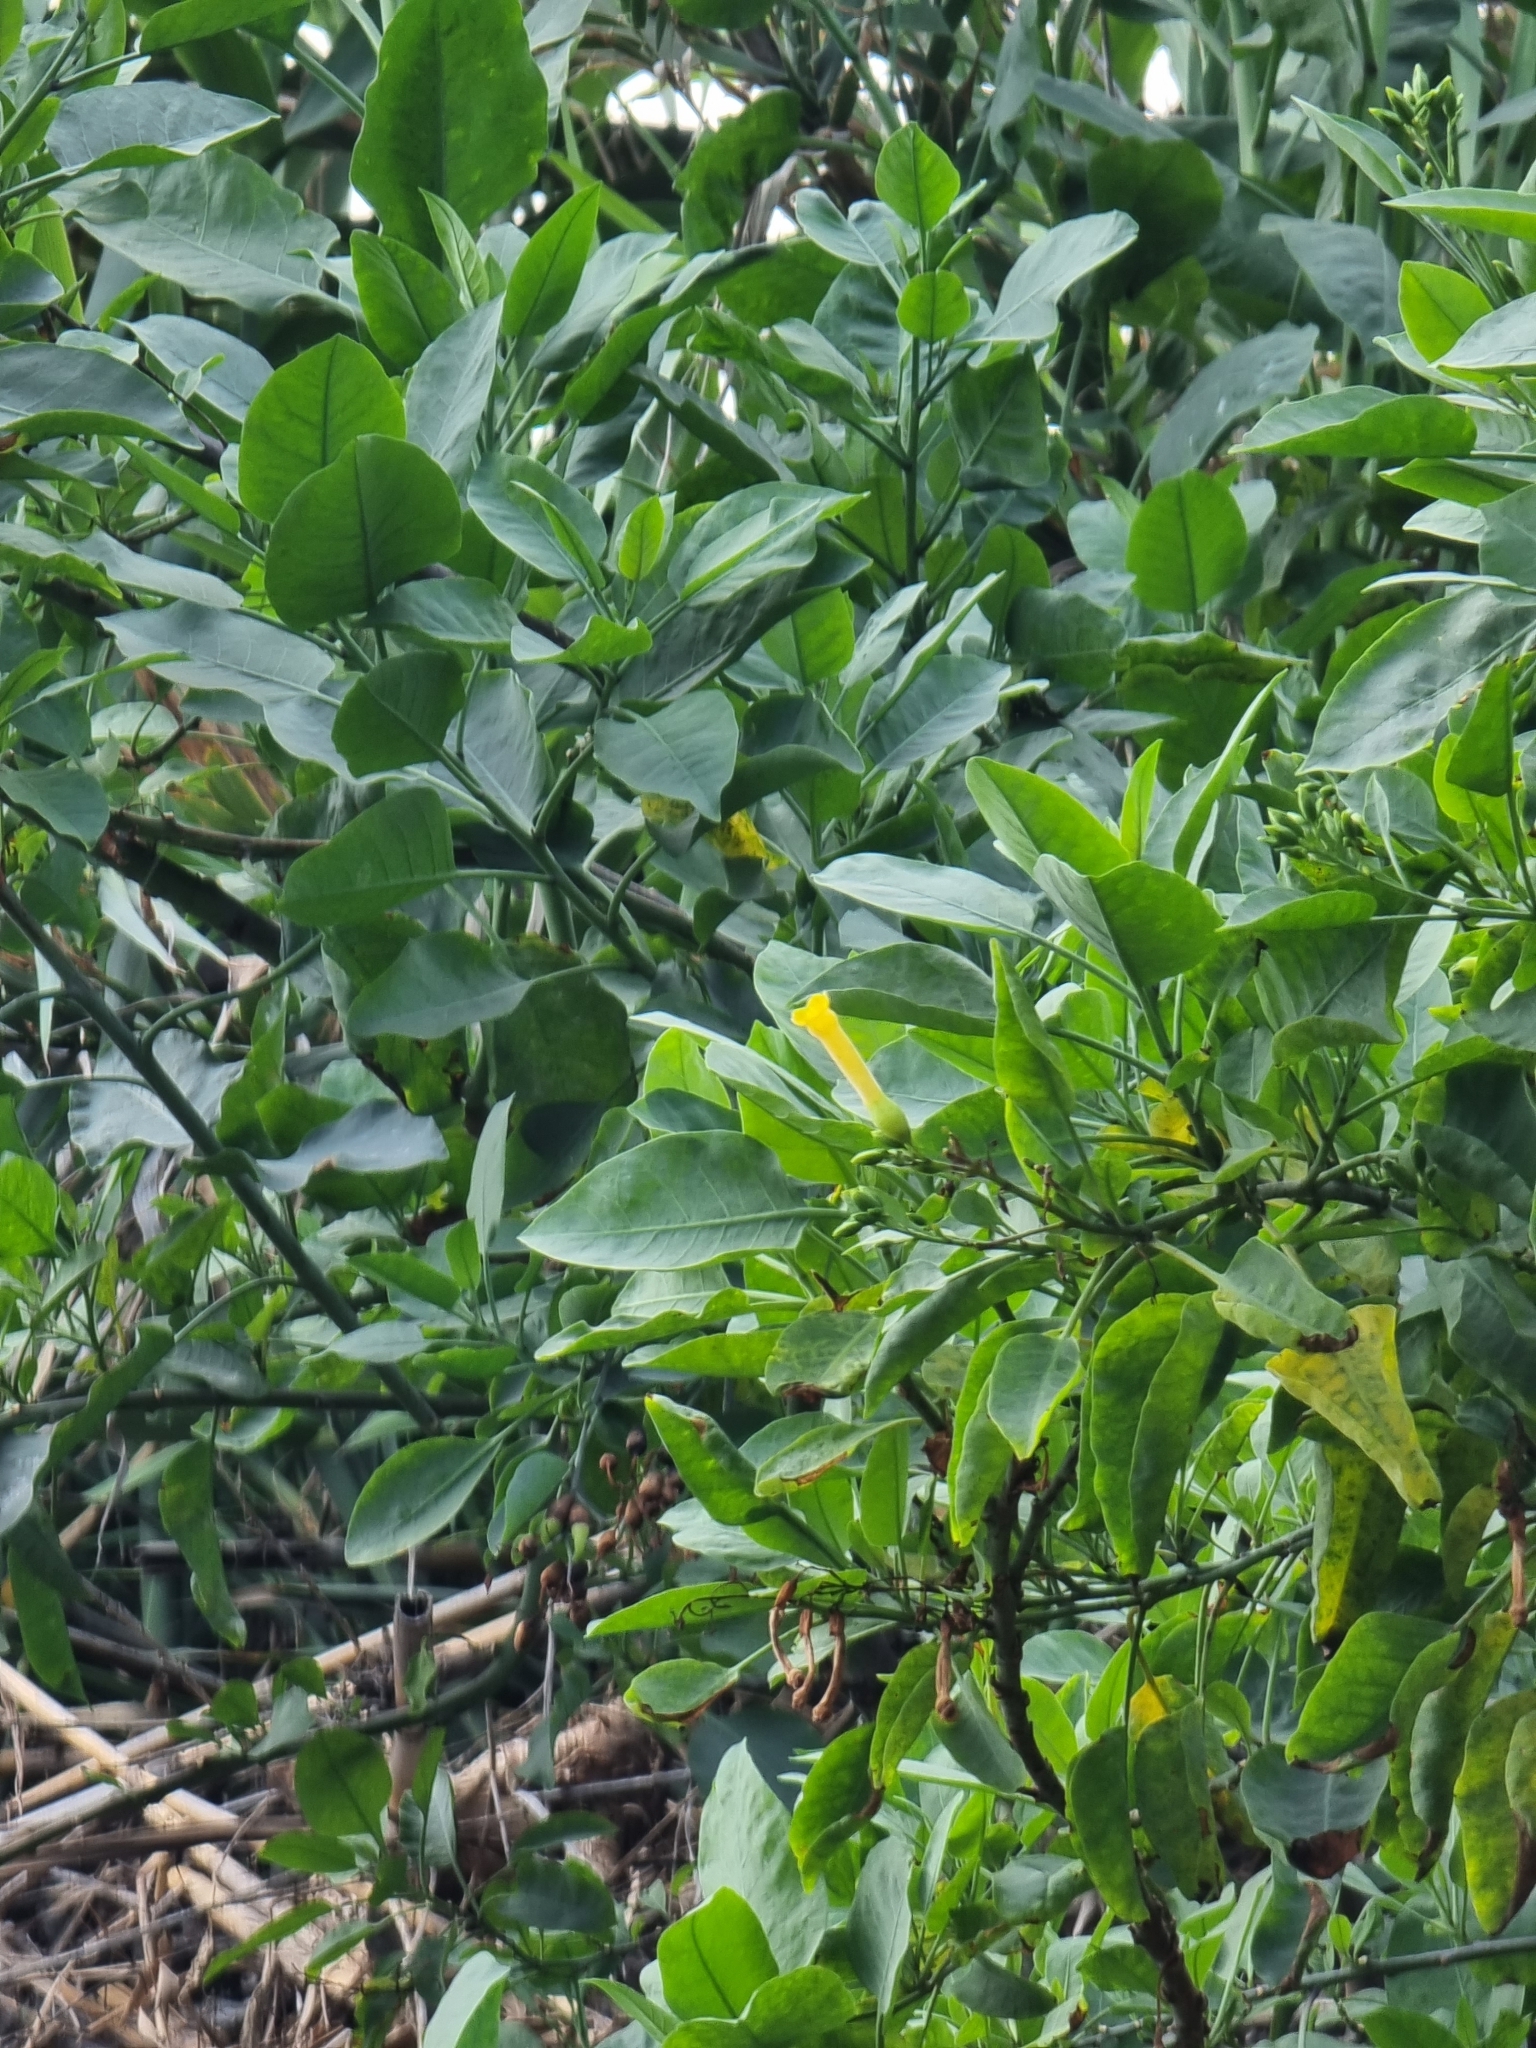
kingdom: Plantae
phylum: Tracheophyta
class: Magnoliopsida
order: Solanales
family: Solanaceae
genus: Nicotiana
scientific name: Nicotiana glauca
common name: Tree tobacco
